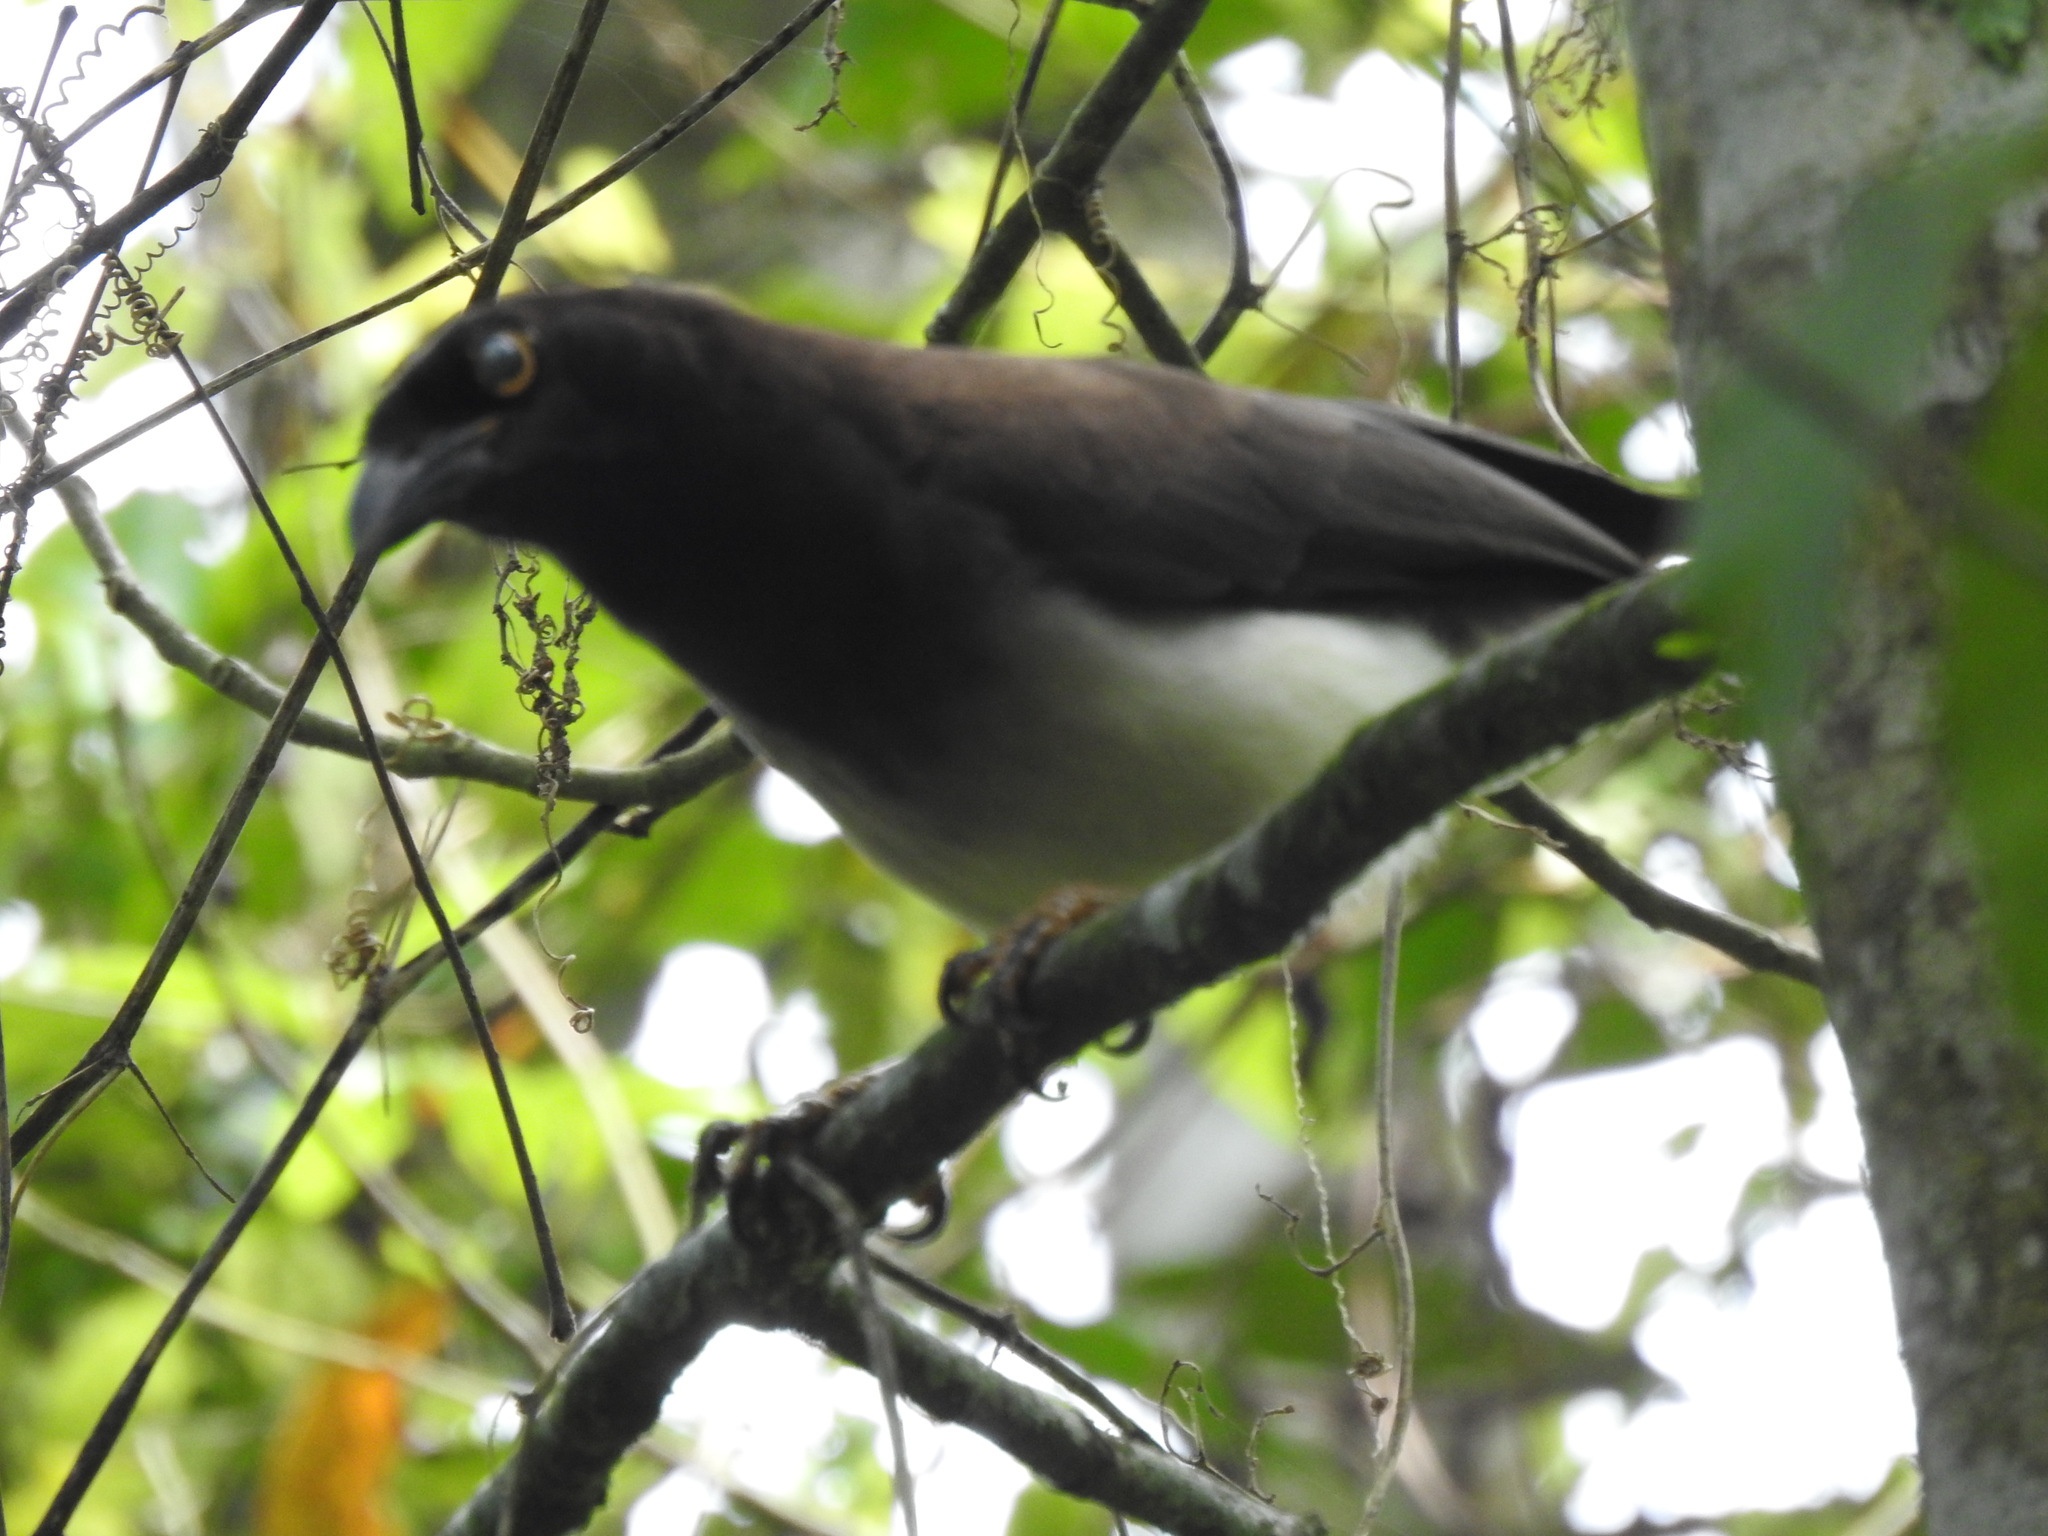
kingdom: Animalia
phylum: Chordata
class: Aves
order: Passeriformes
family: Corvidae
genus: Psilorhinus
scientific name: Psilorhinus morio
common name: Brown jay
